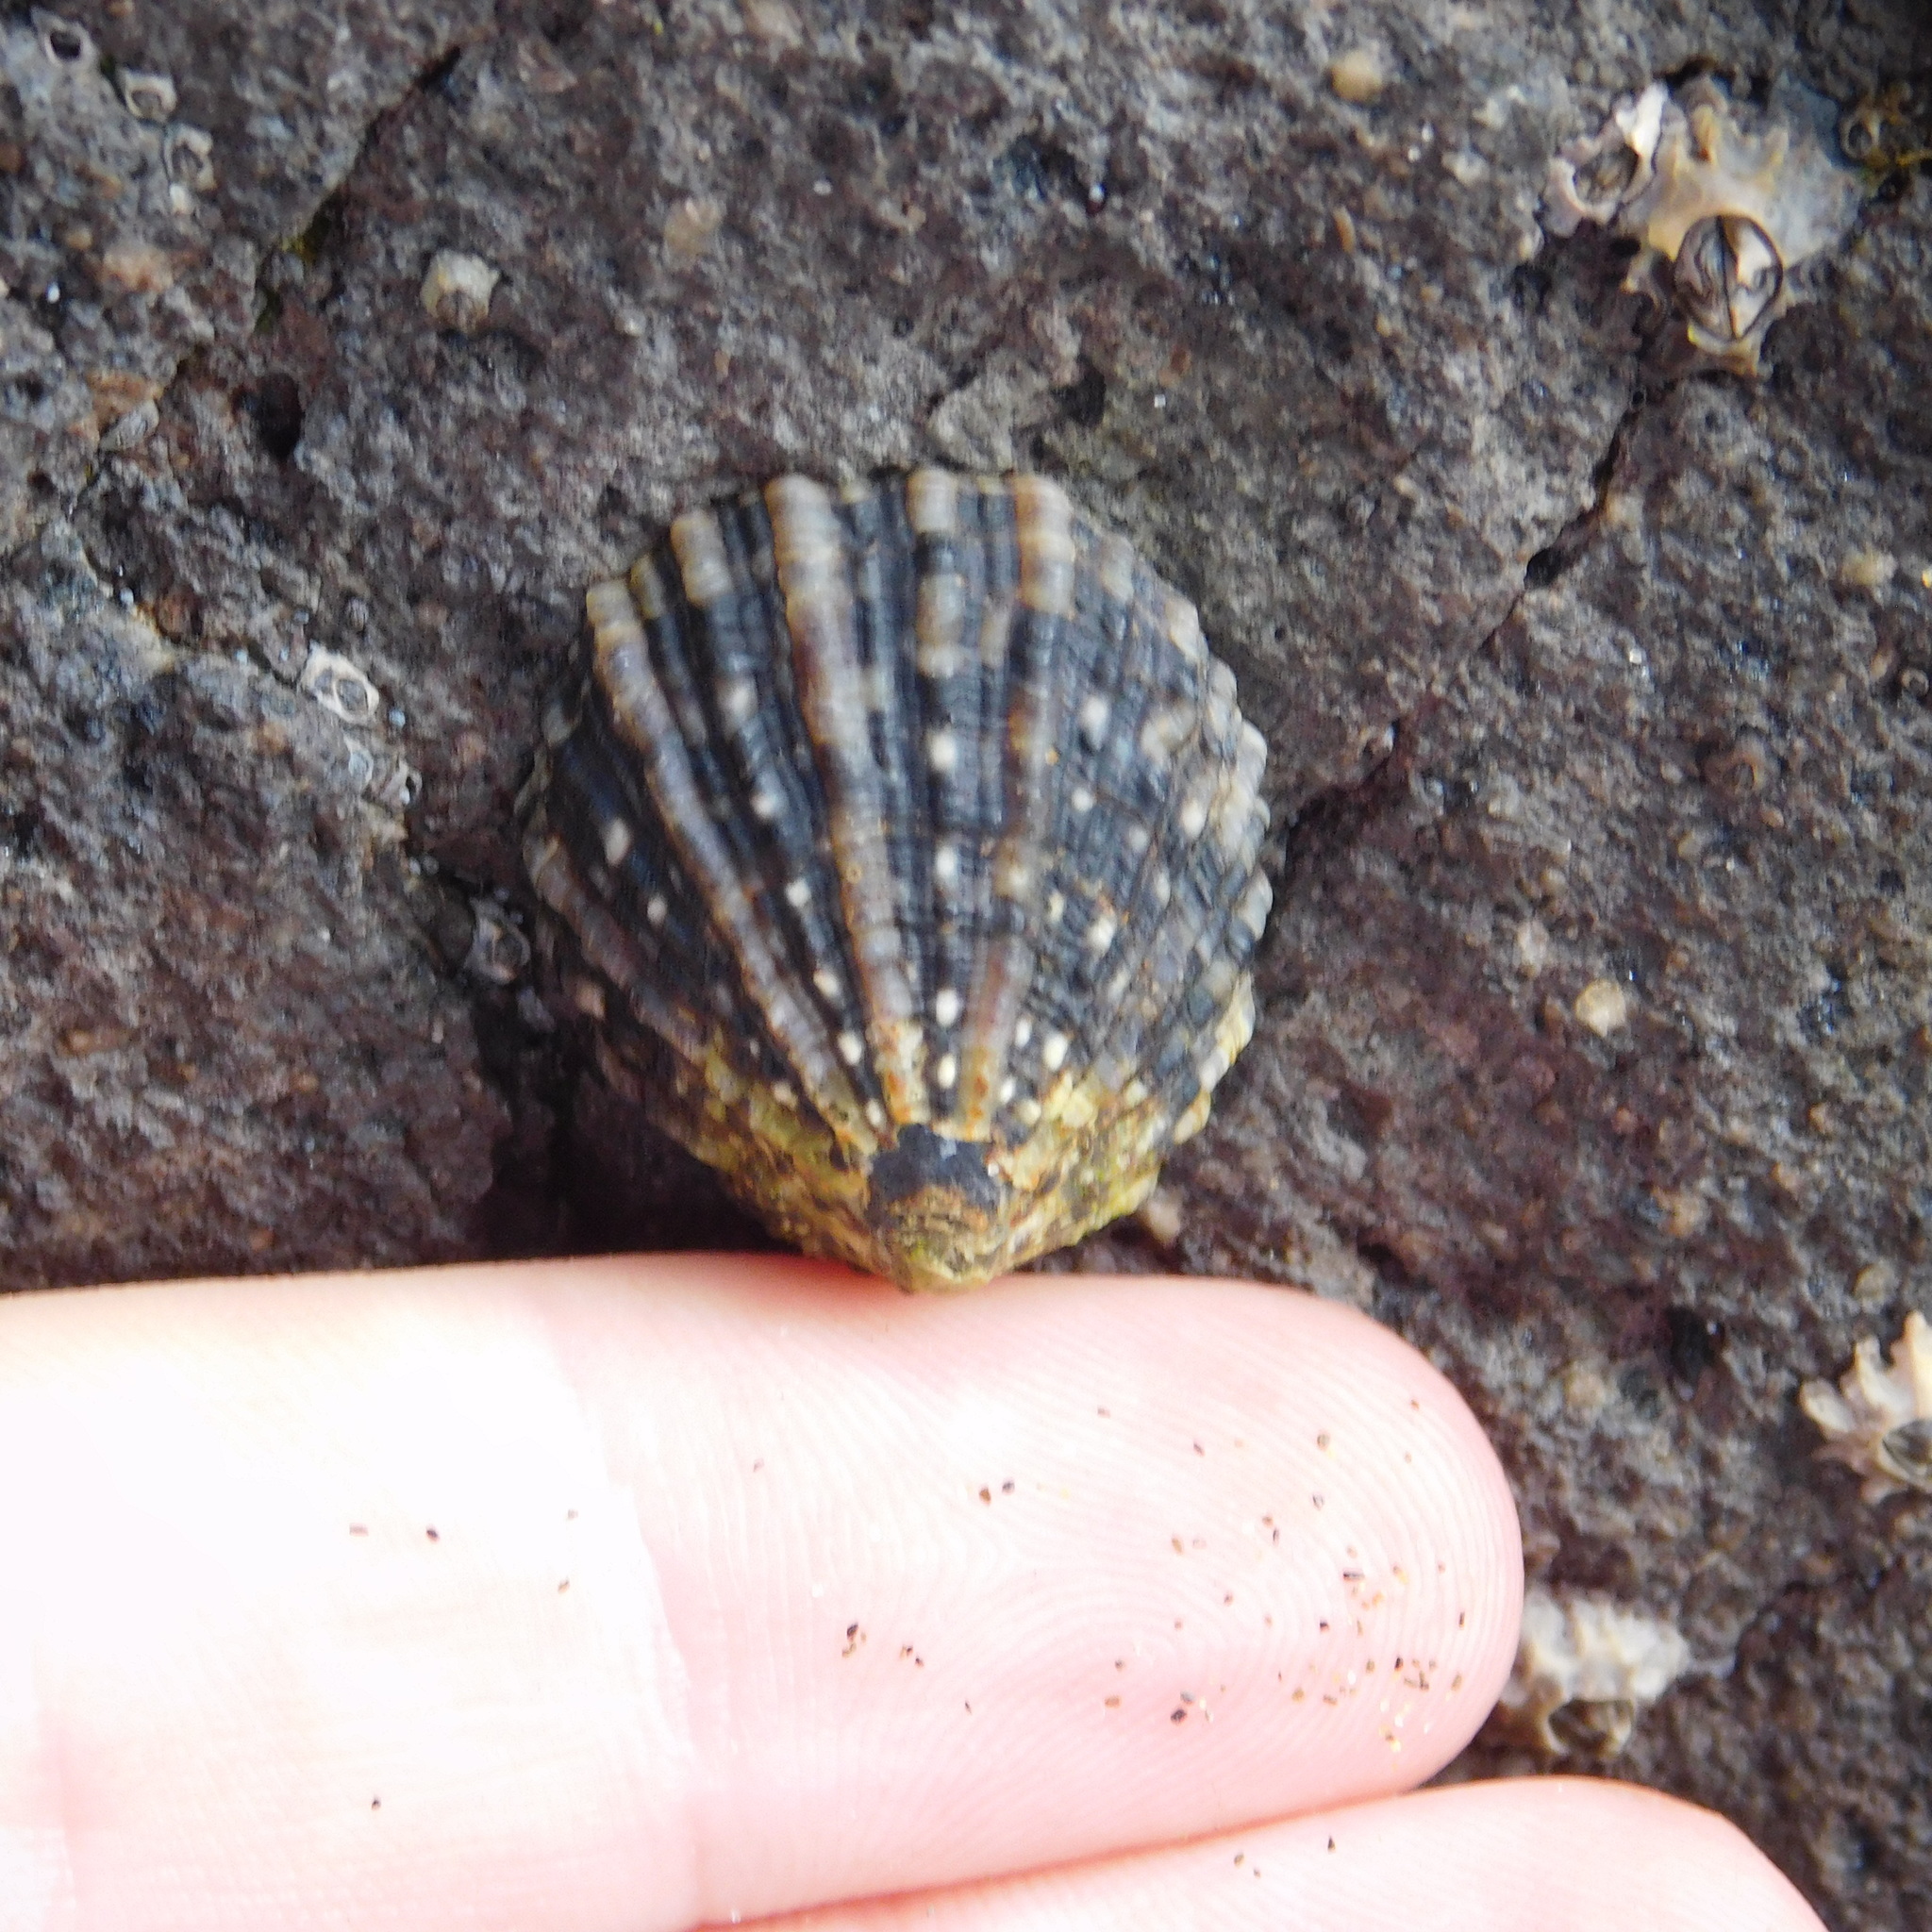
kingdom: Animalia
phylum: Mollusca
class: Gastropoda
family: Nacellidae
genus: Cellana
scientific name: Cellana ornata
